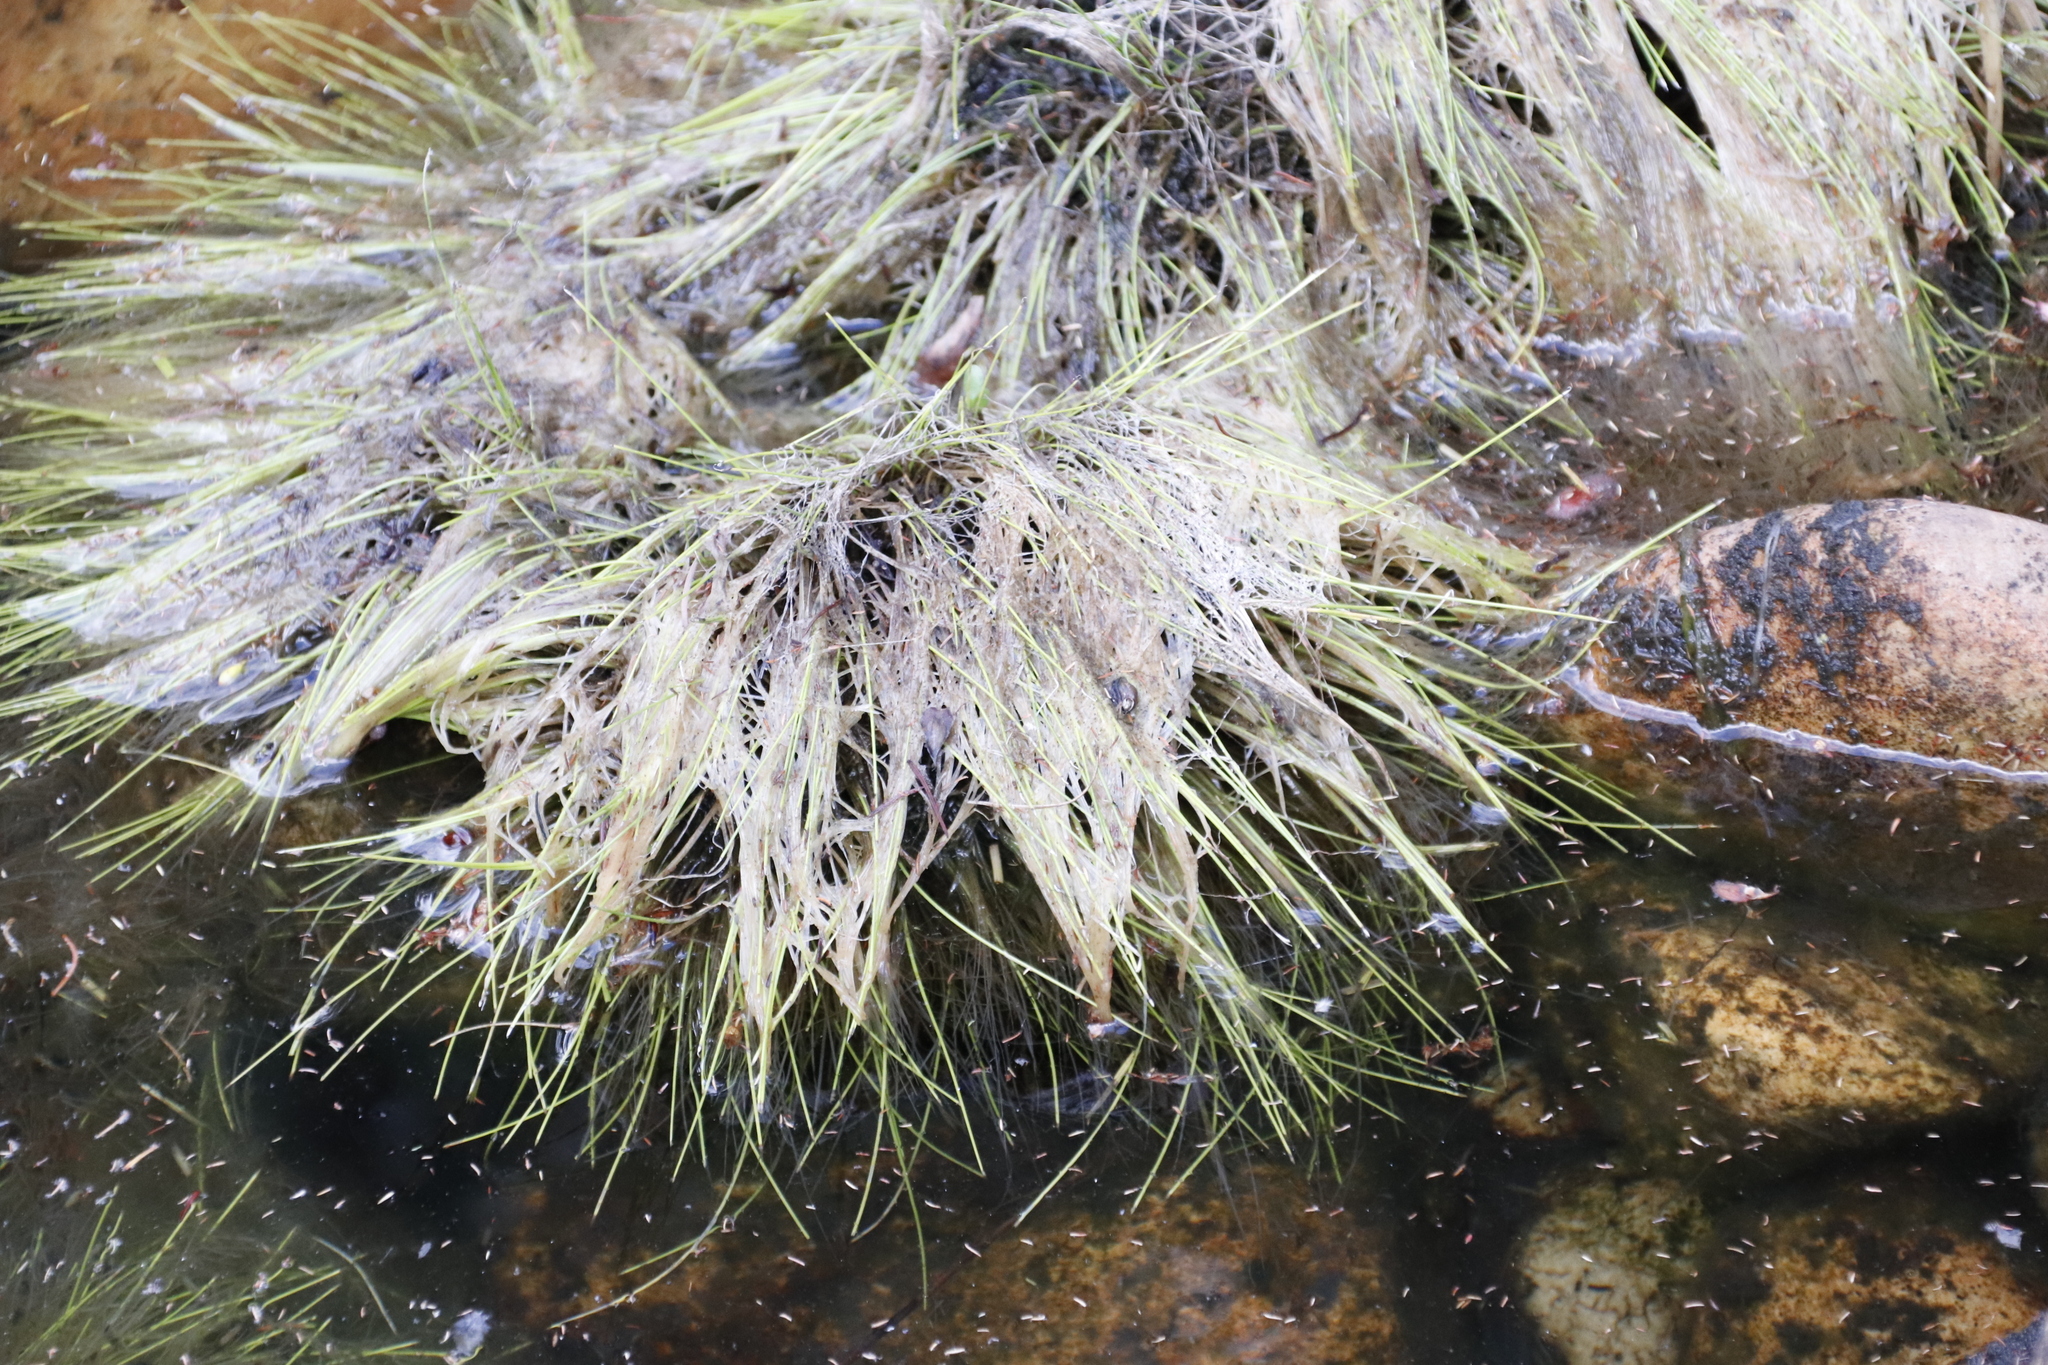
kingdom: Plantae
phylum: Tracheophyta
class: Liliopsida
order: Poales
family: Cyperaceae
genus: Isolepis
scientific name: Isolepis digitata
